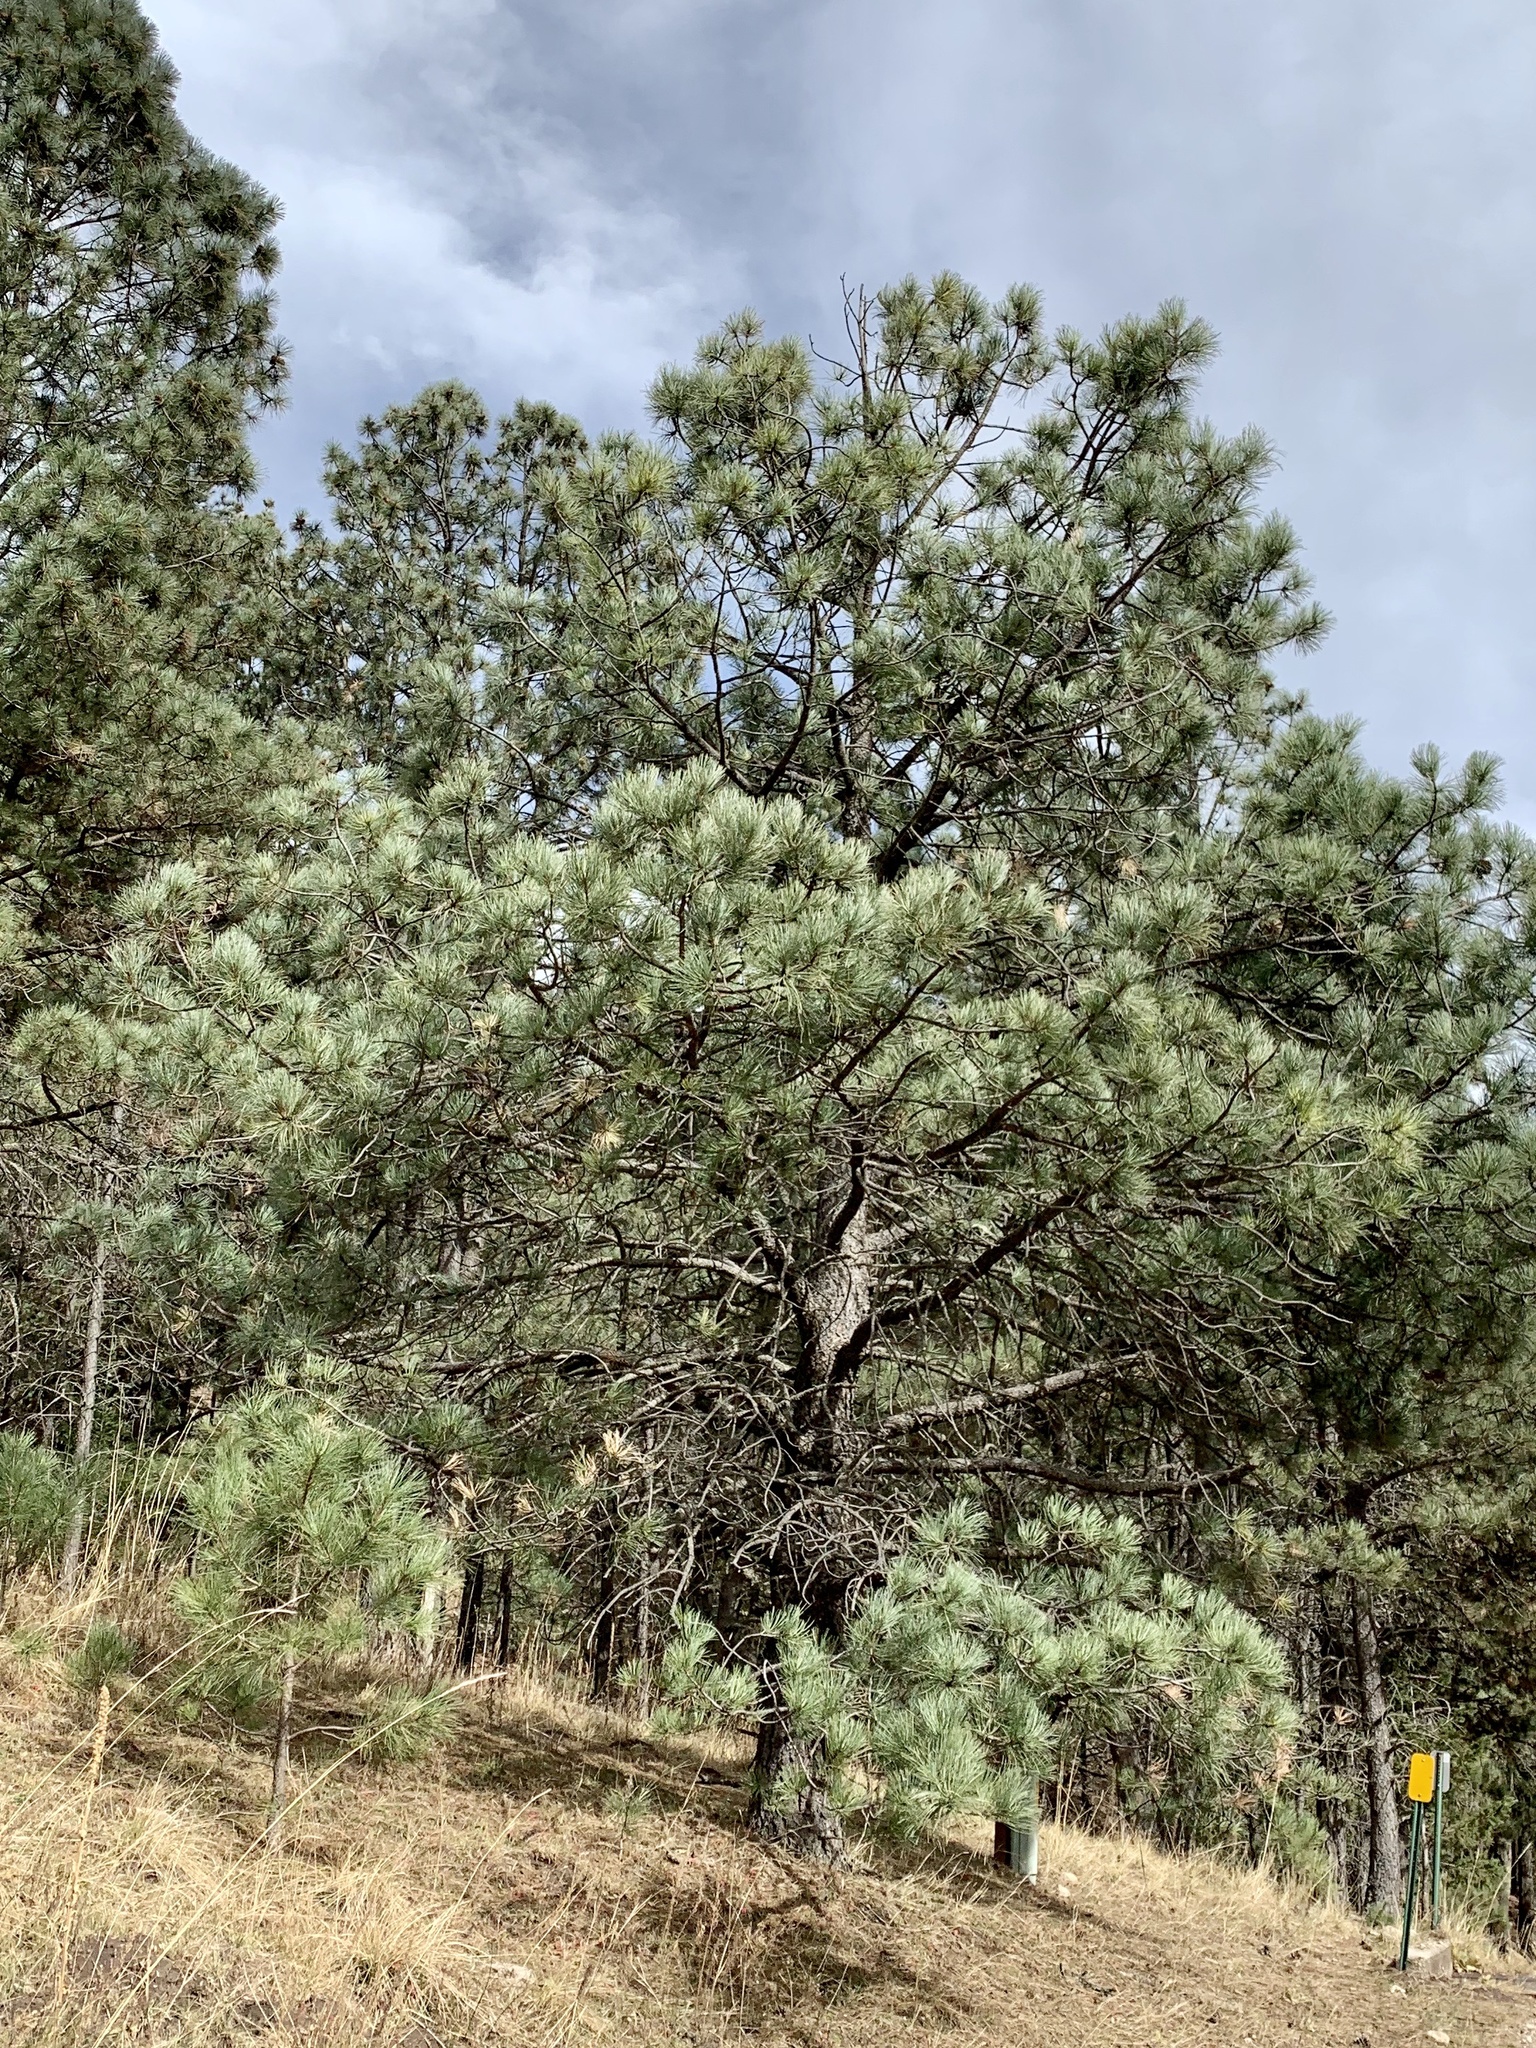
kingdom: Plantae
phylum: Tracheophyta
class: Pinopsida
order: Pinales
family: Pinaceae
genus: Pinus
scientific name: Pinus ponderosa
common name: Western yellow-pine
